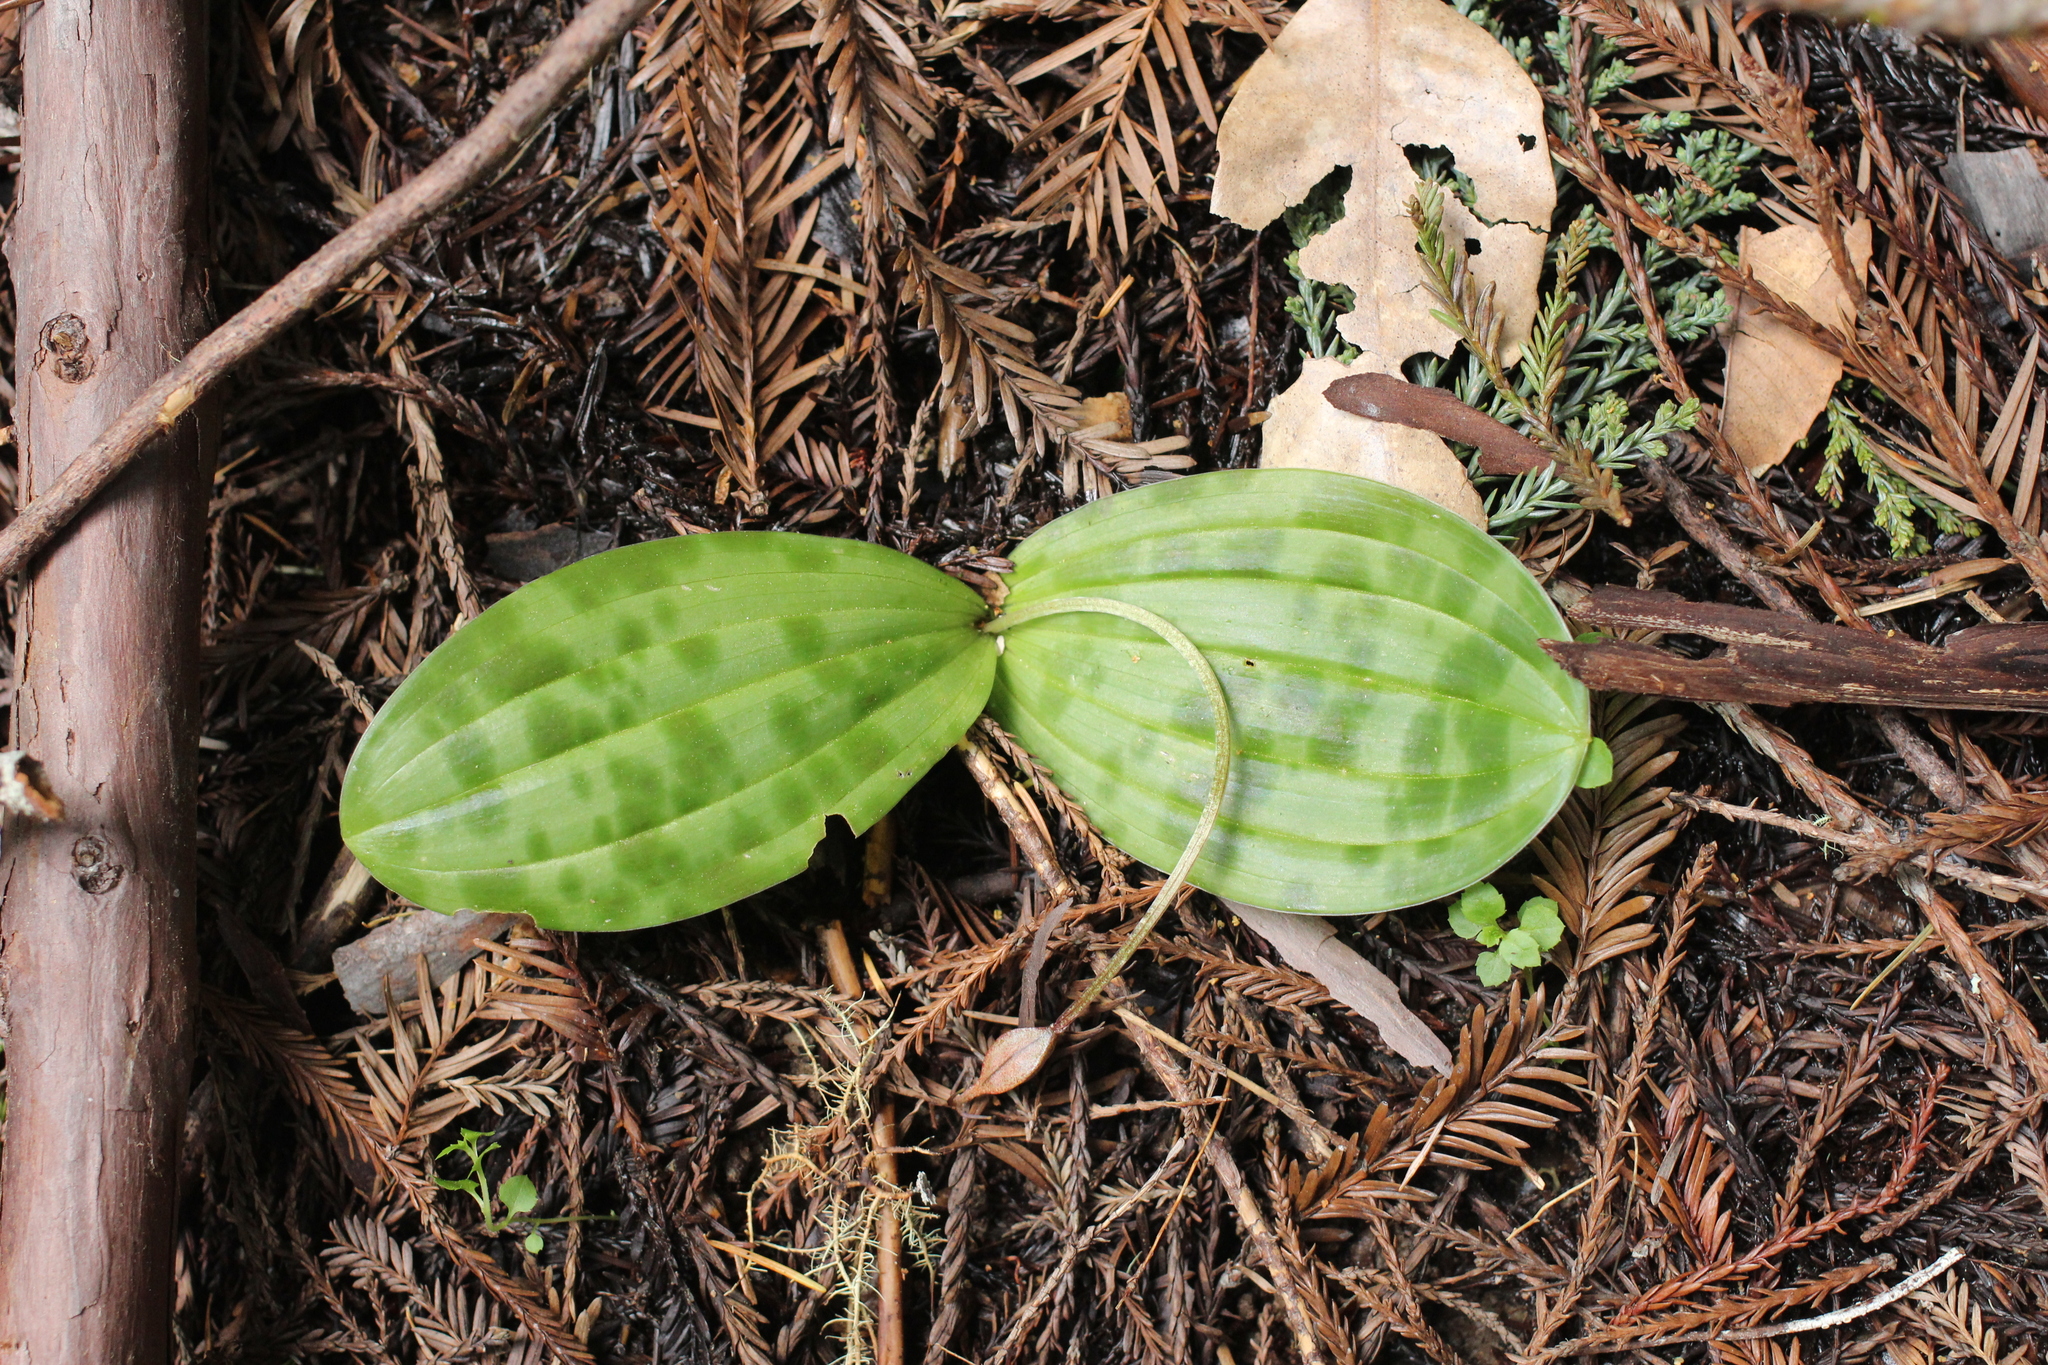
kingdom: Plantae
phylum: Tracheophyta
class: Liliopsida
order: Liliales
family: Liliaceae
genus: Scoliopus
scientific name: Scoliopus bigelovii
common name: Foetid adder's-tongue
